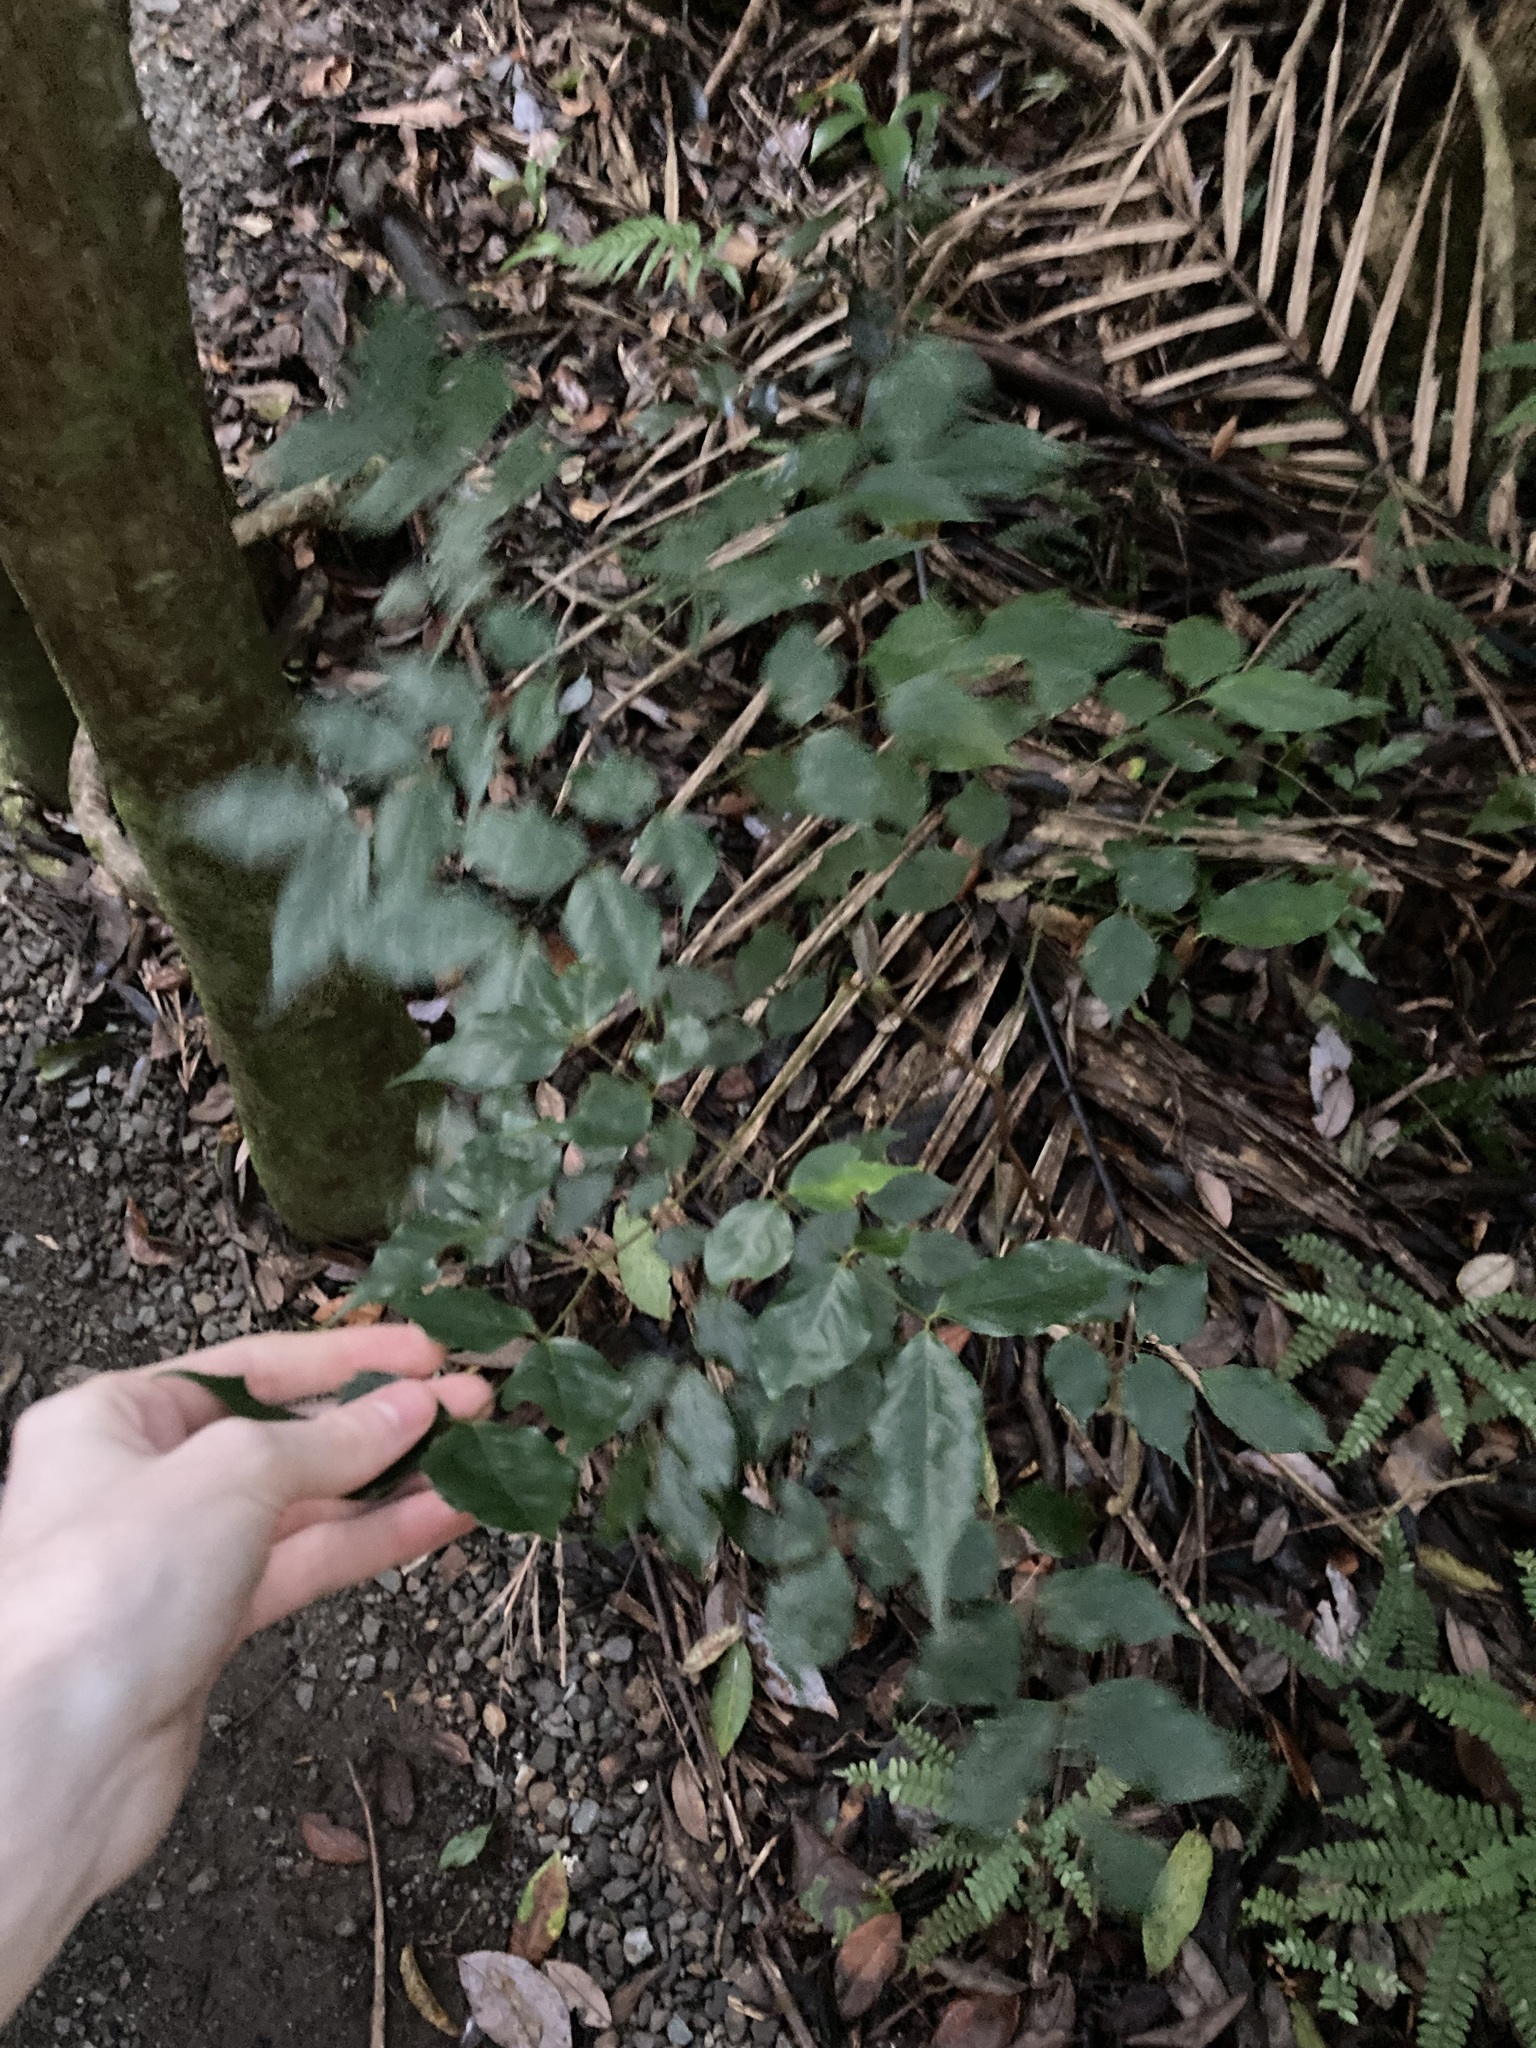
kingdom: Plantae
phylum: Tracheophyta
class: Magnoliopsida
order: Fabales
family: Fabaceae
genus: Archidendron
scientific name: Archidendron grandiflorum
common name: Tulip siris
